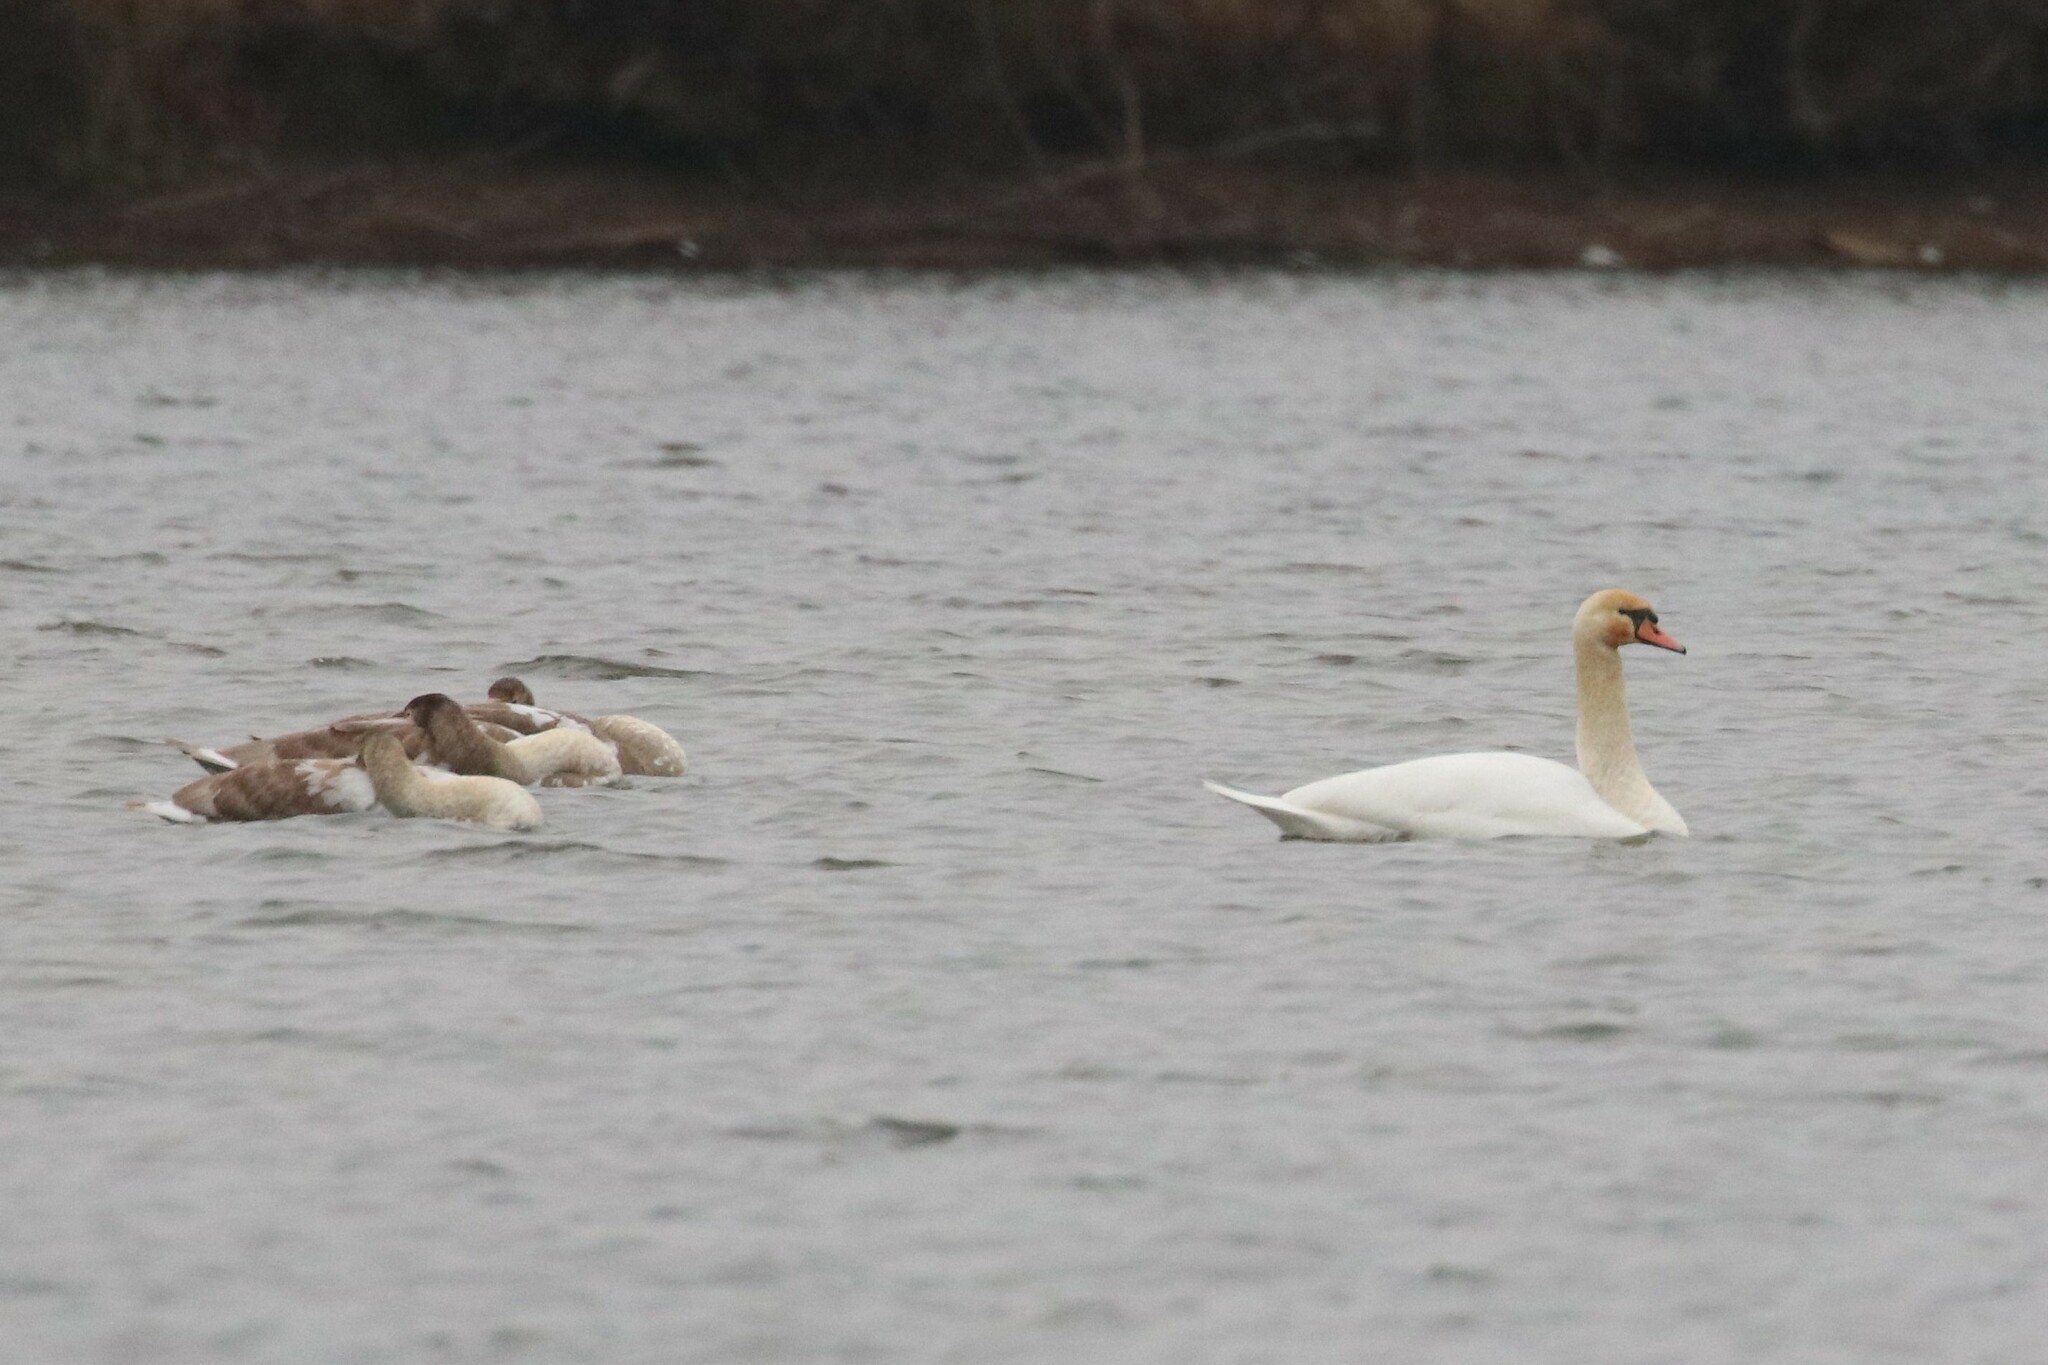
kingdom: Animalia
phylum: Chordata
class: Aves
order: Anseriformes
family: Anatidae
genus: Cygnus
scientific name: Cygnus olor
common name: Mute swan
